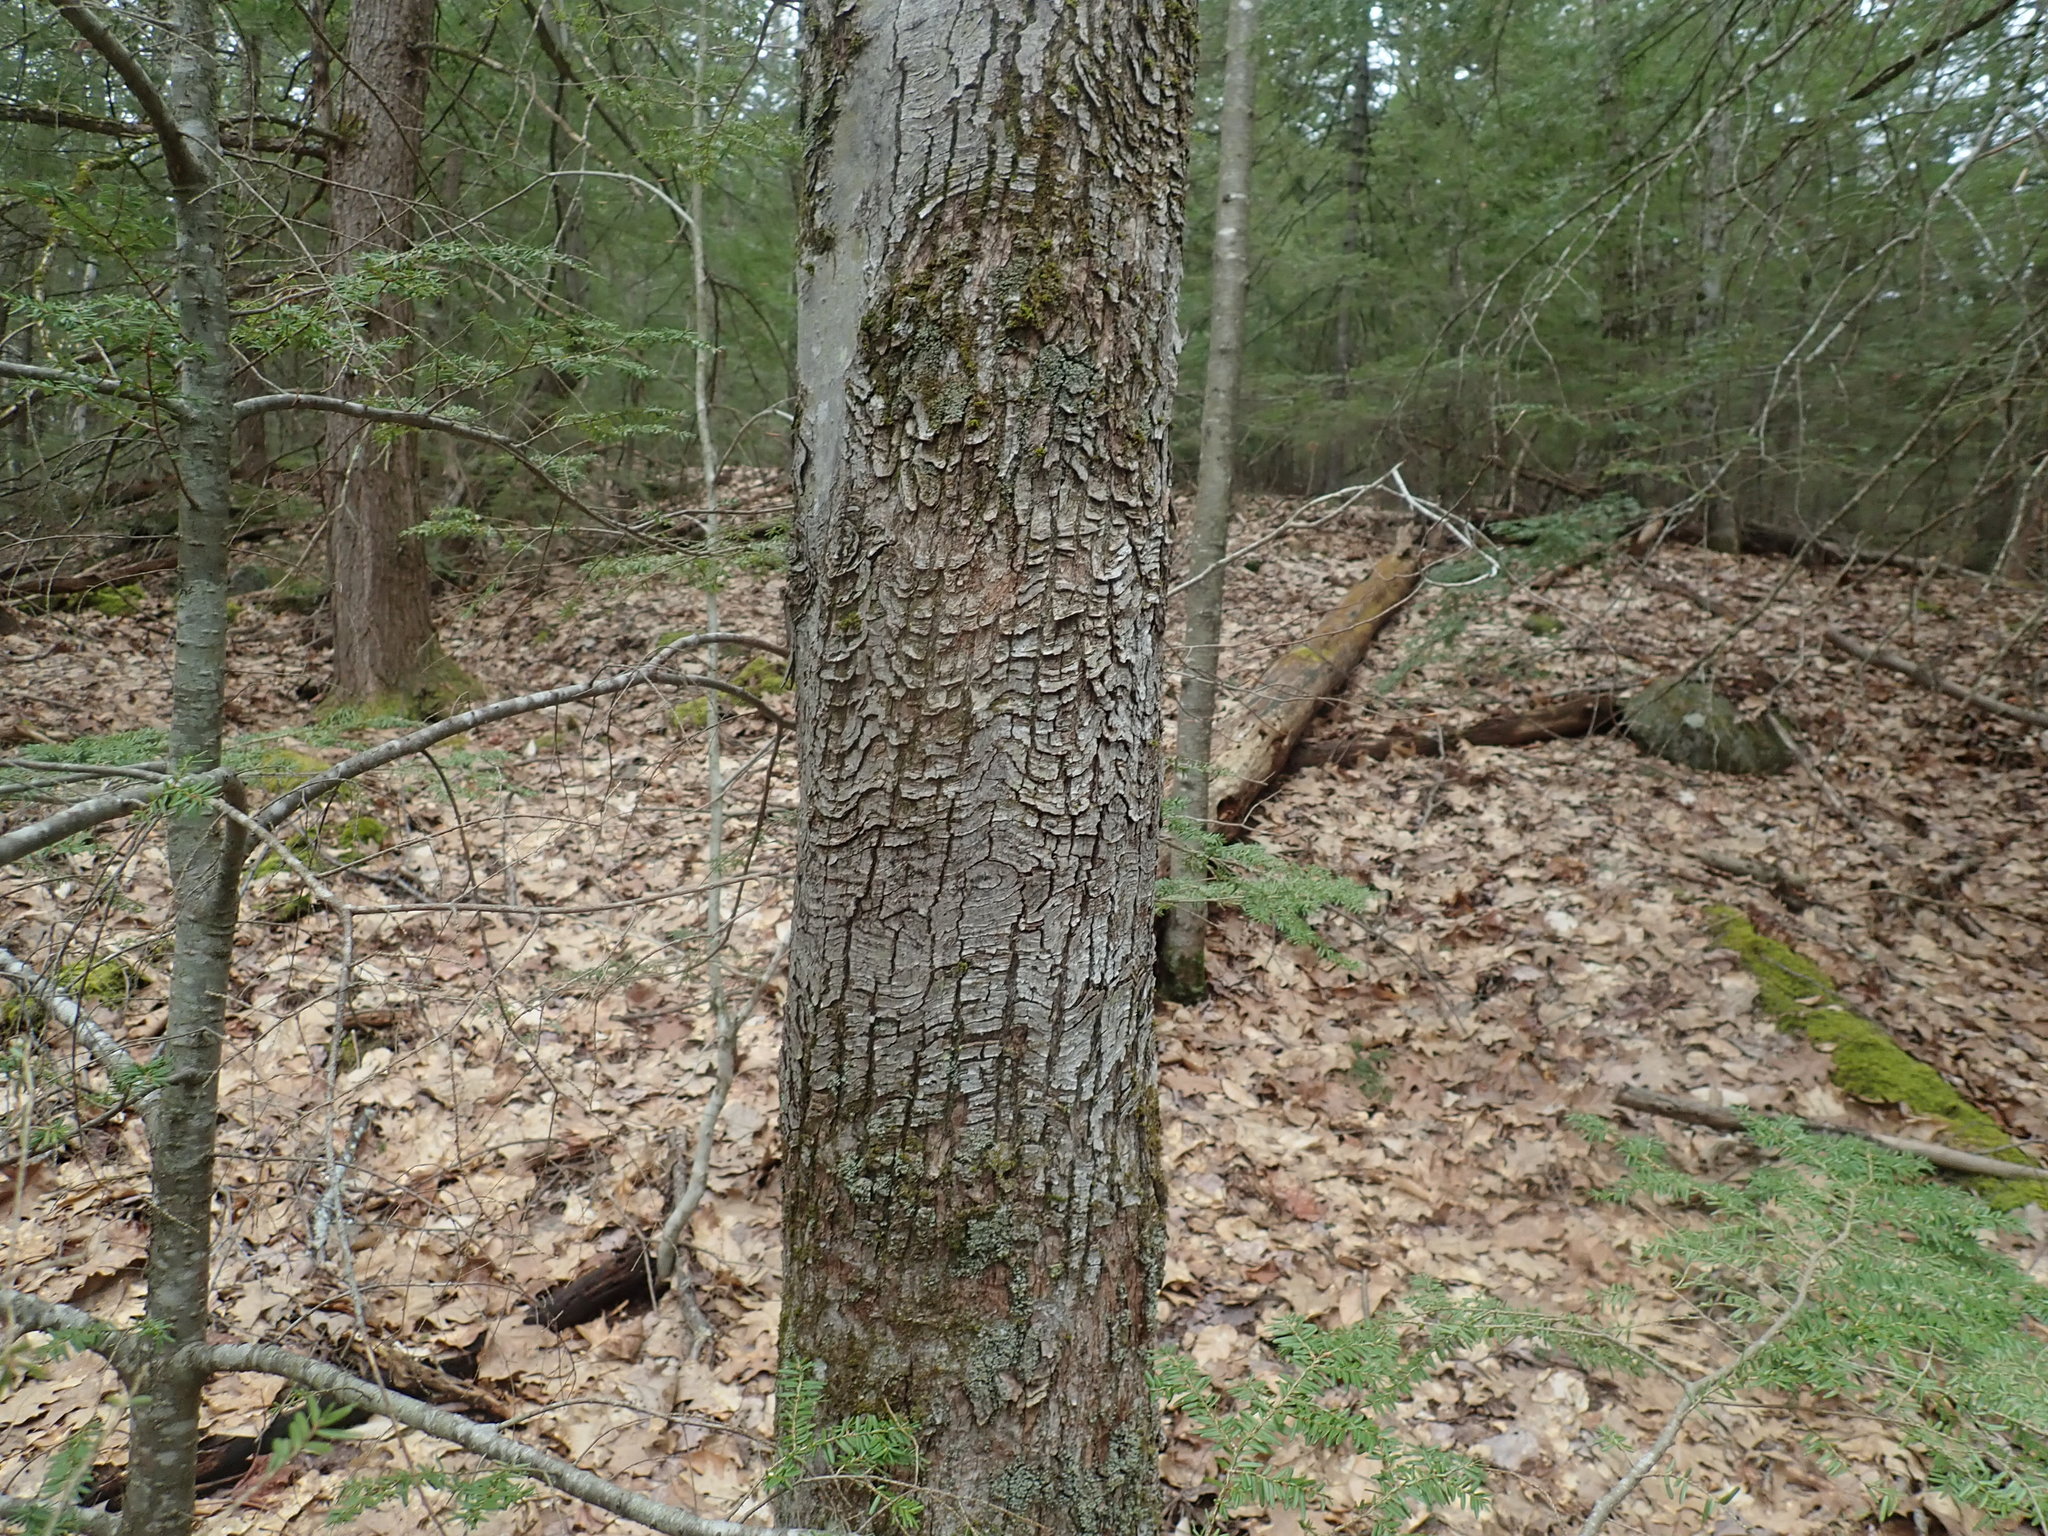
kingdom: Plantae
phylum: Tracheophyta
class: Magnoliopsida
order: Sapindales
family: Sapindaceae
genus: Acer
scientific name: Acer rubrum
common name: Red maple
